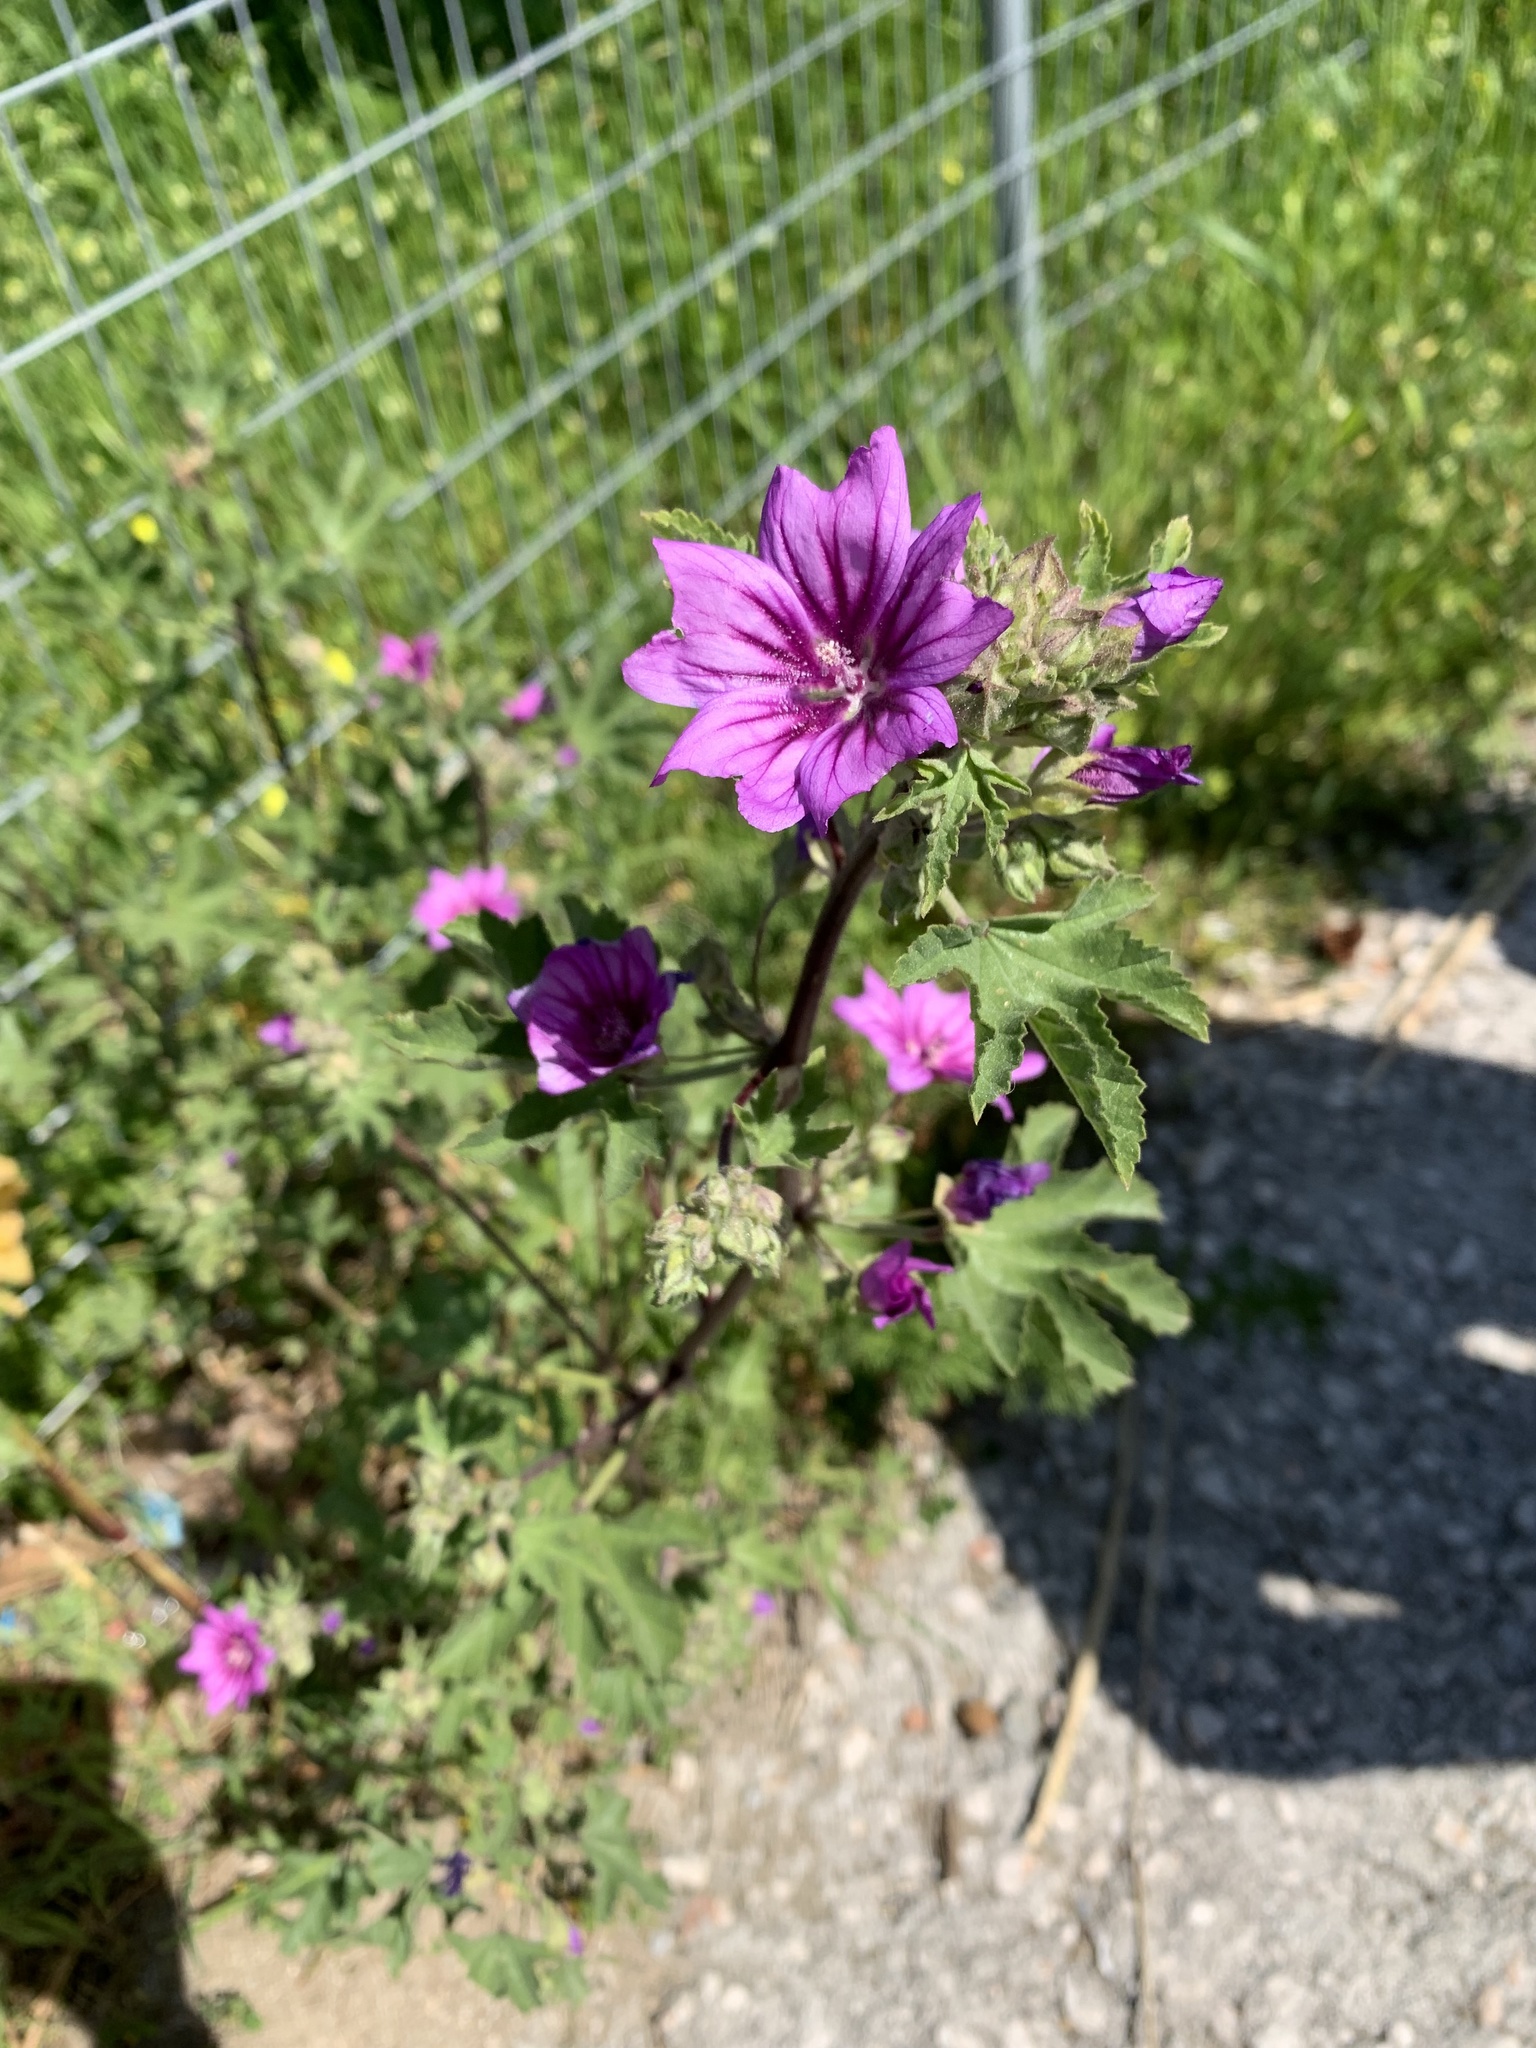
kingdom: Plantae
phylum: Tracheophyta
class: Magnoliopsida
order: Malvales
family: Malvaceae
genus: Malva
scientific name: Malva sylvestris
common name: Common mallow
